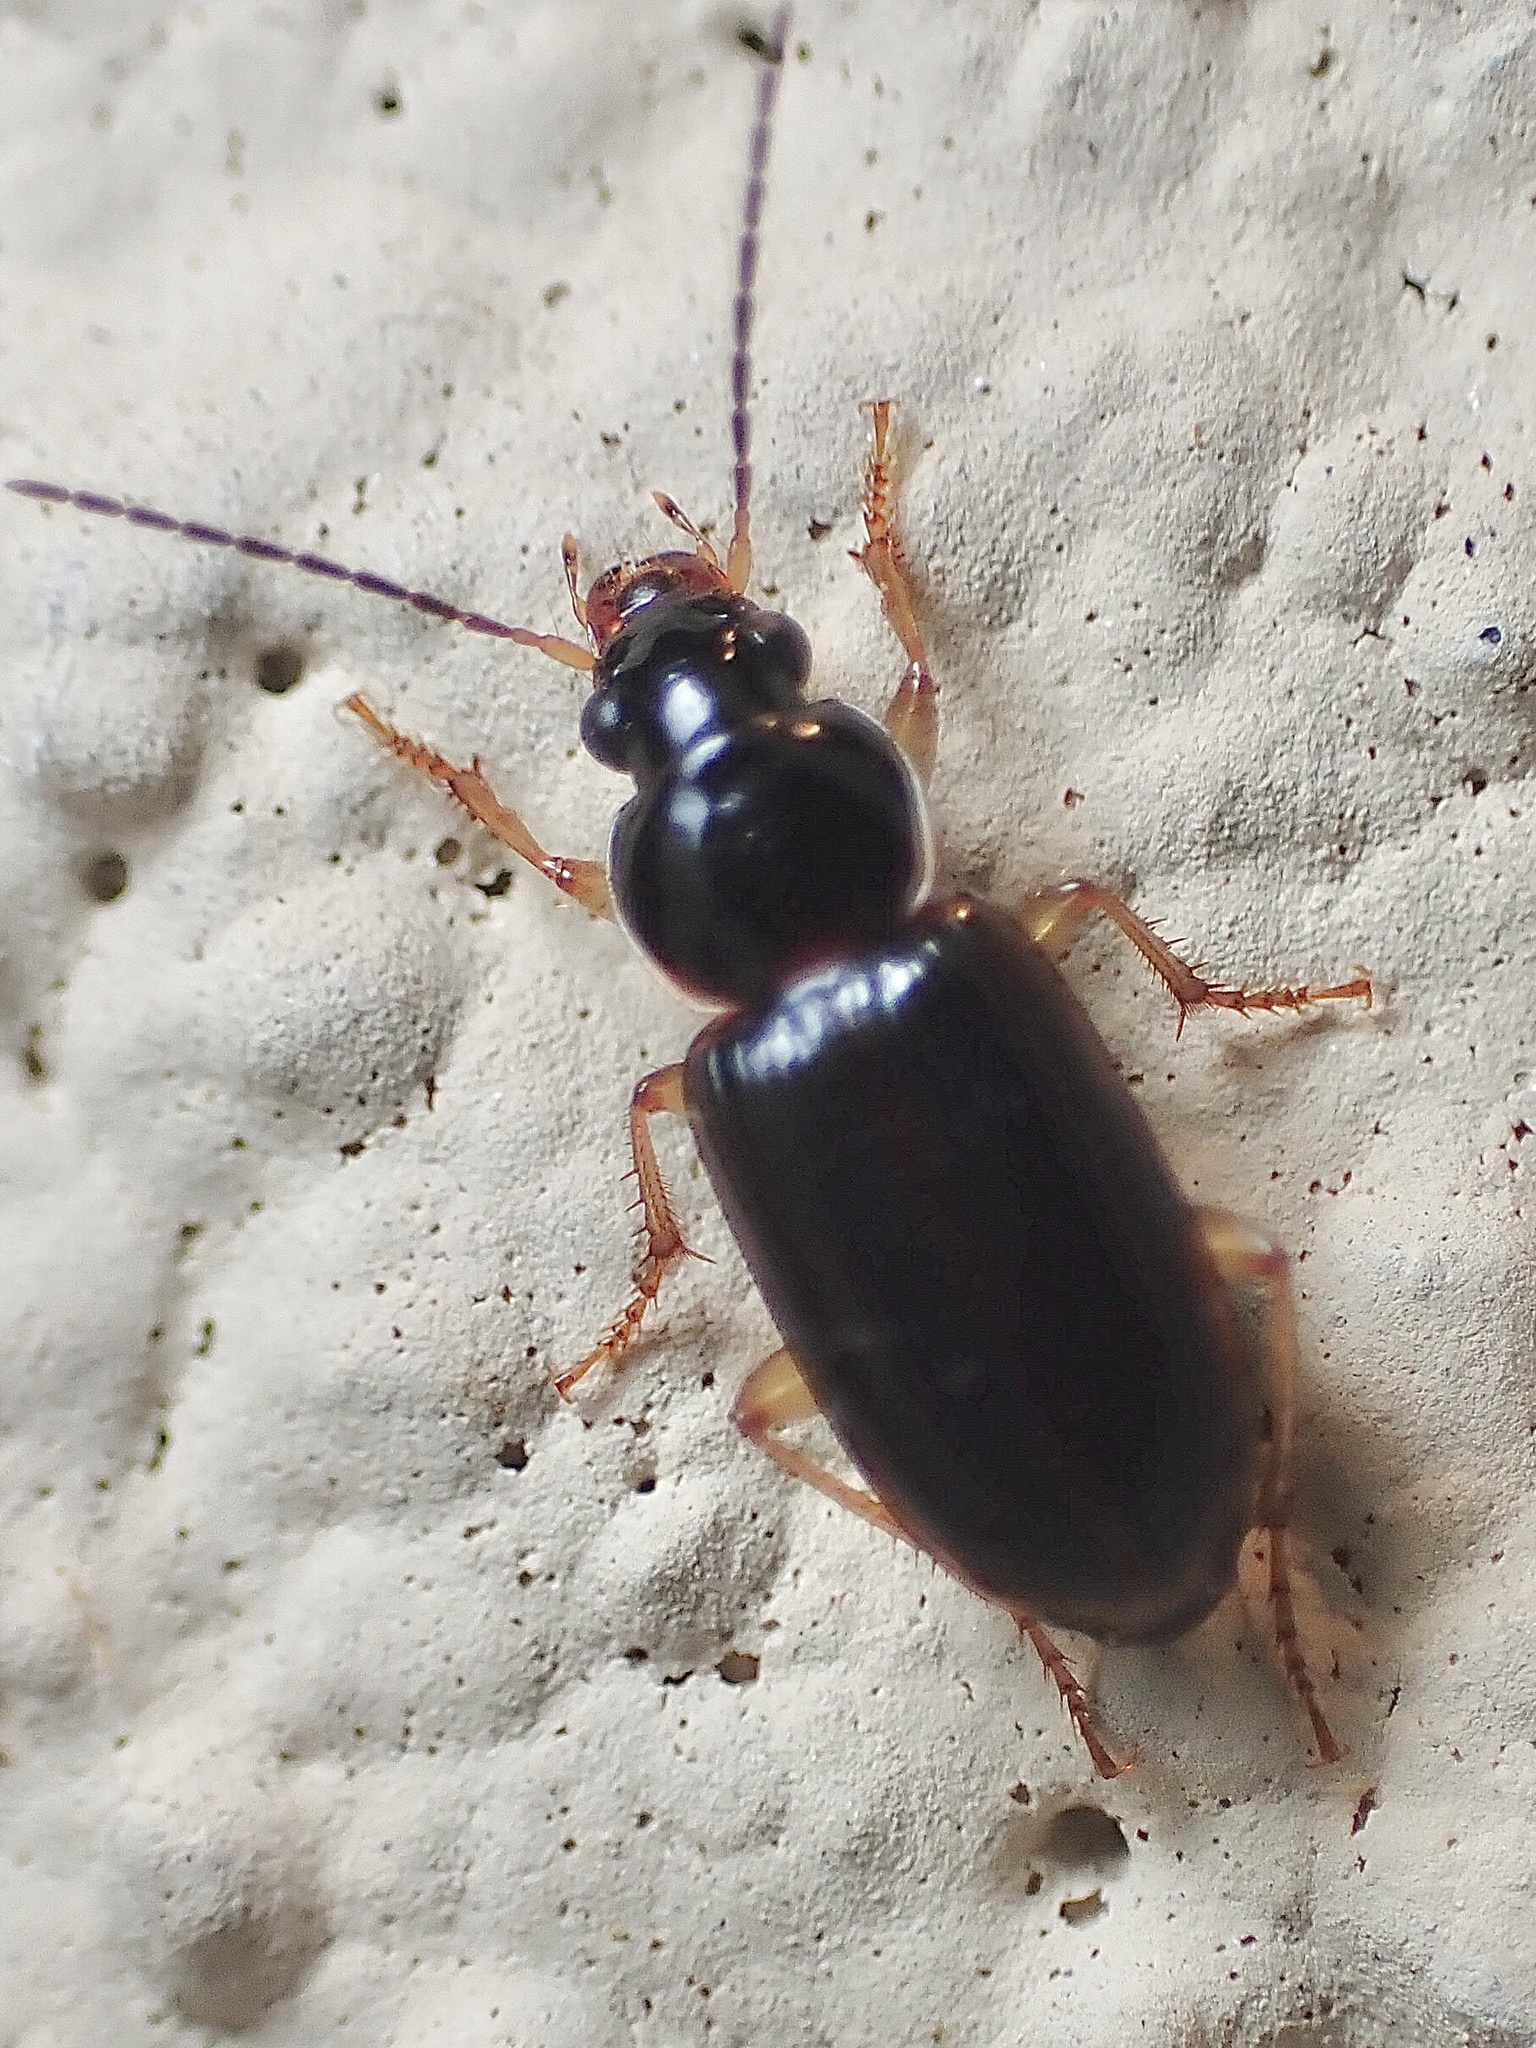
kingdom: Animalia
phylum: Arthropoda
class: Insecta
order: Coleoptera
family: Carabidae
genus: Stenolophus
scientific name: Stenolophus ochropezus
